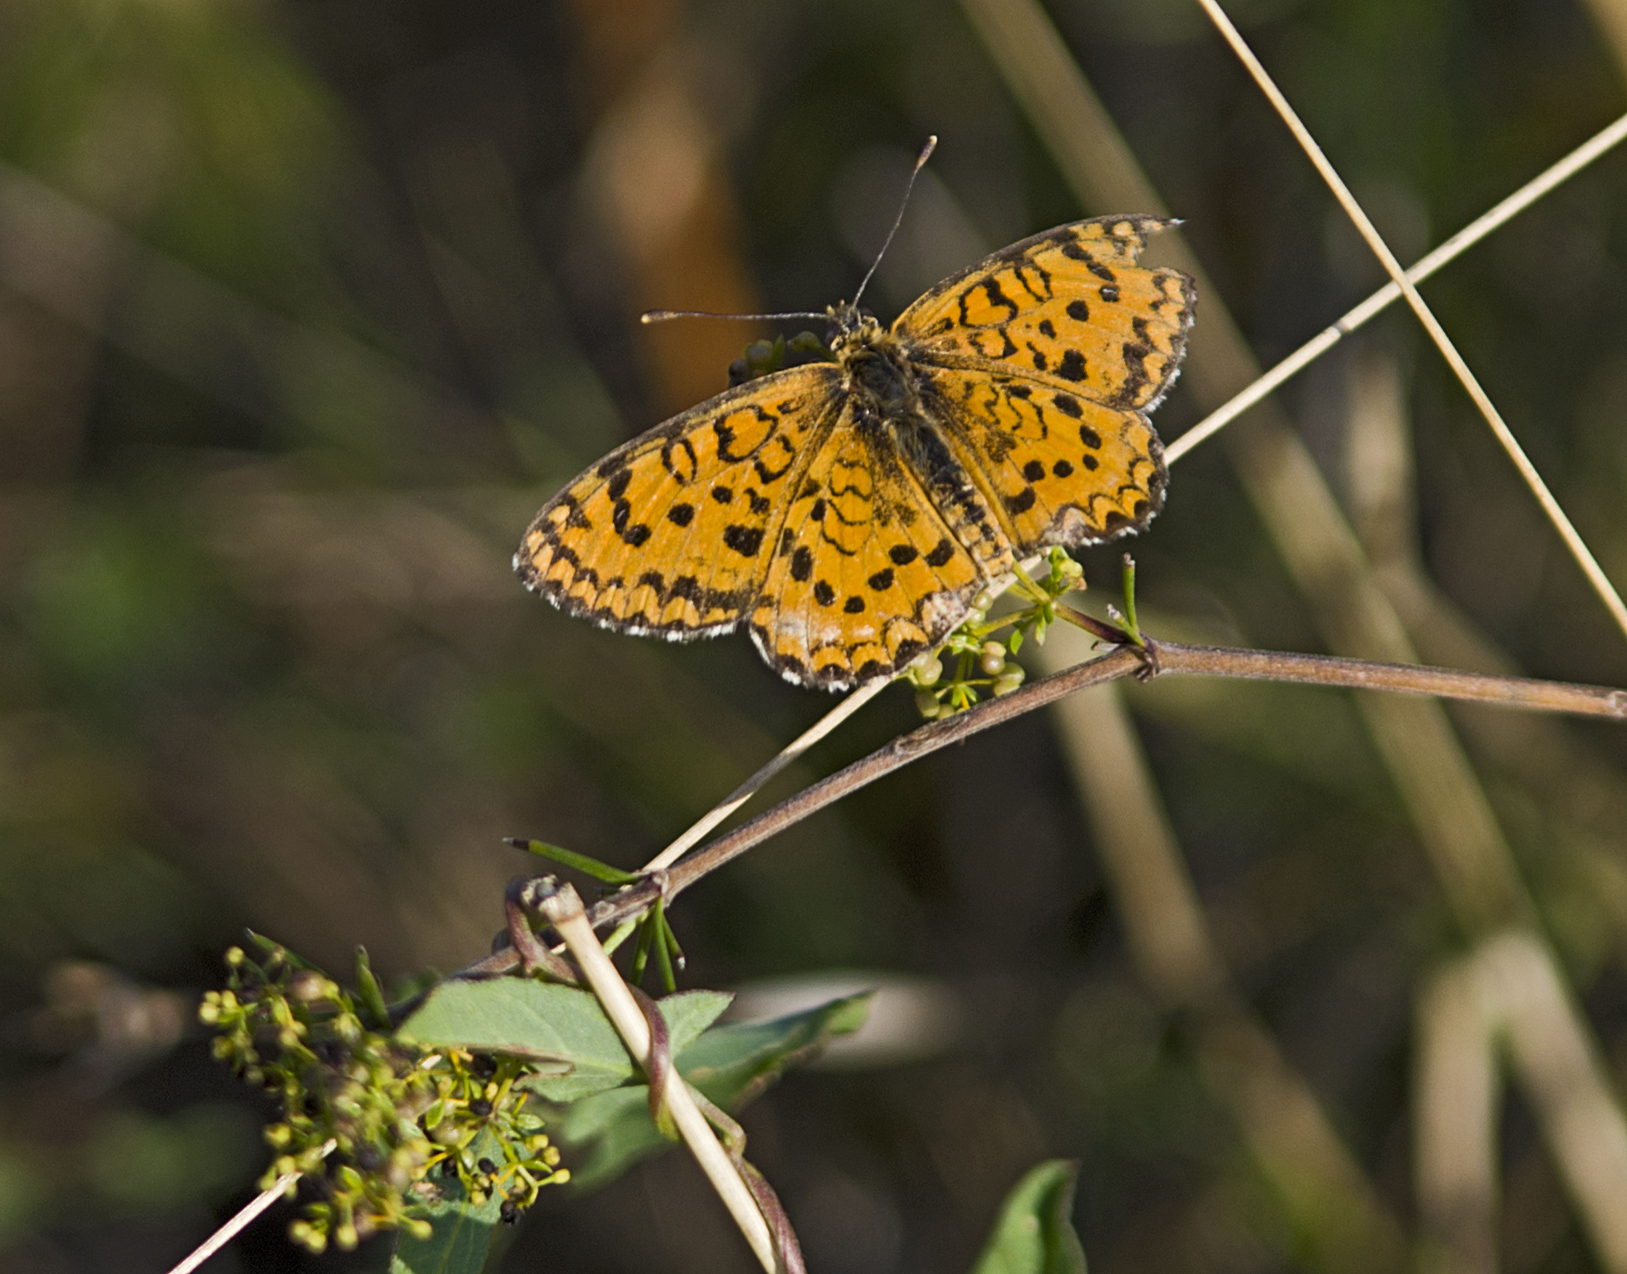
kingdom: Animalia
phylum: Arthropoda
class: Insecta
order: Lepidoptera
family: Nymphalidae
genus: Melitaea
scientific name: Melitaea trivia
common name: Lesser spotted fritillary
